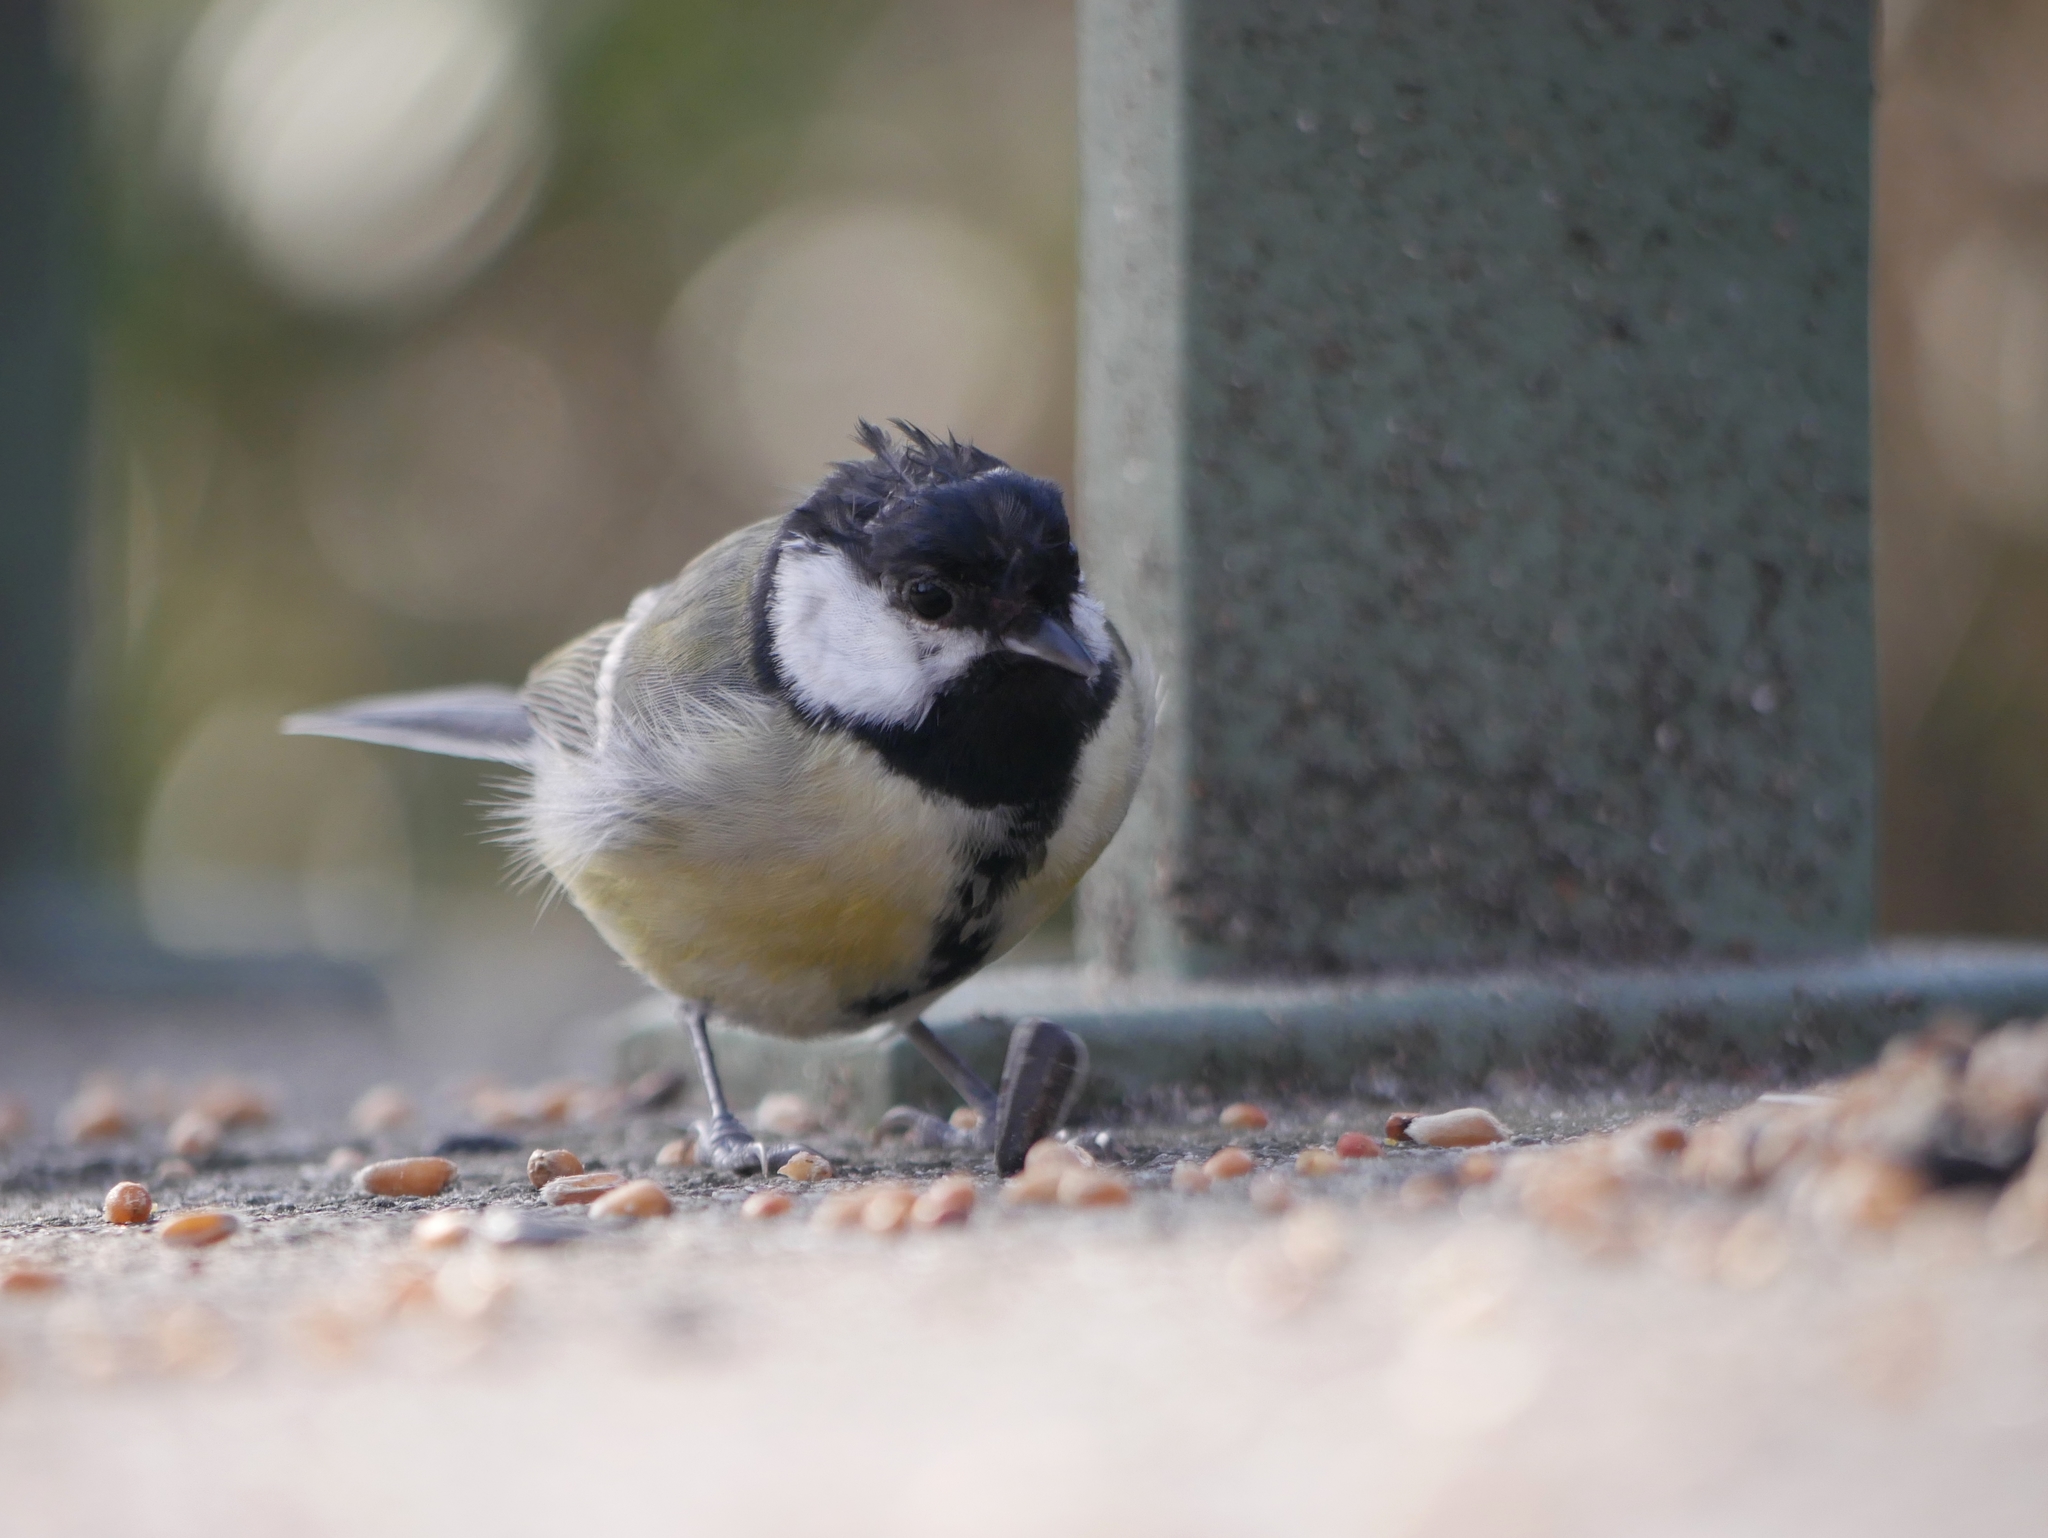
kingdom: Animalia
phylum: Chordata
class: Aves
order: Passeriformes
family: Paridae
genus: Parus
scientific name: Parus major
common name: Great tit
